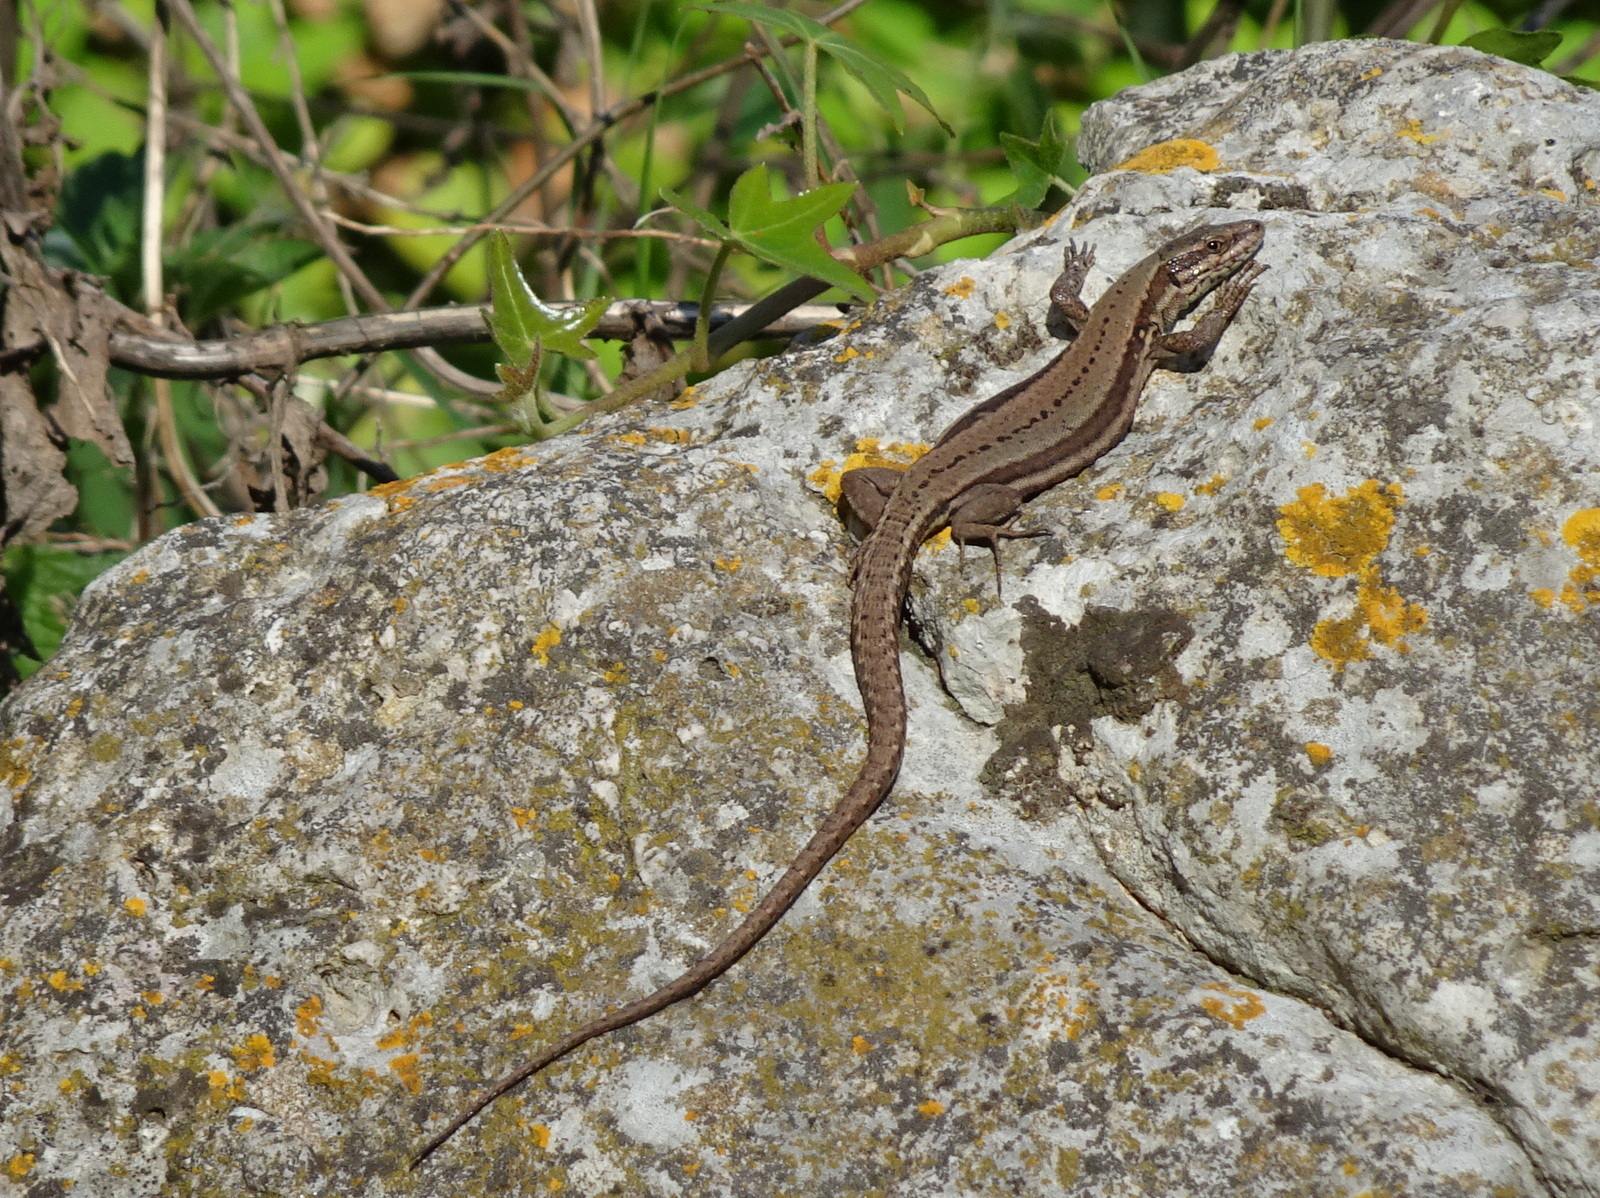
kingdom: Animalia
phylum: Chordata
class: Squamata
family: Lacertidae
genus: Podarcis
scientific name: Podarcis muralis
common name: Common wall lizard
